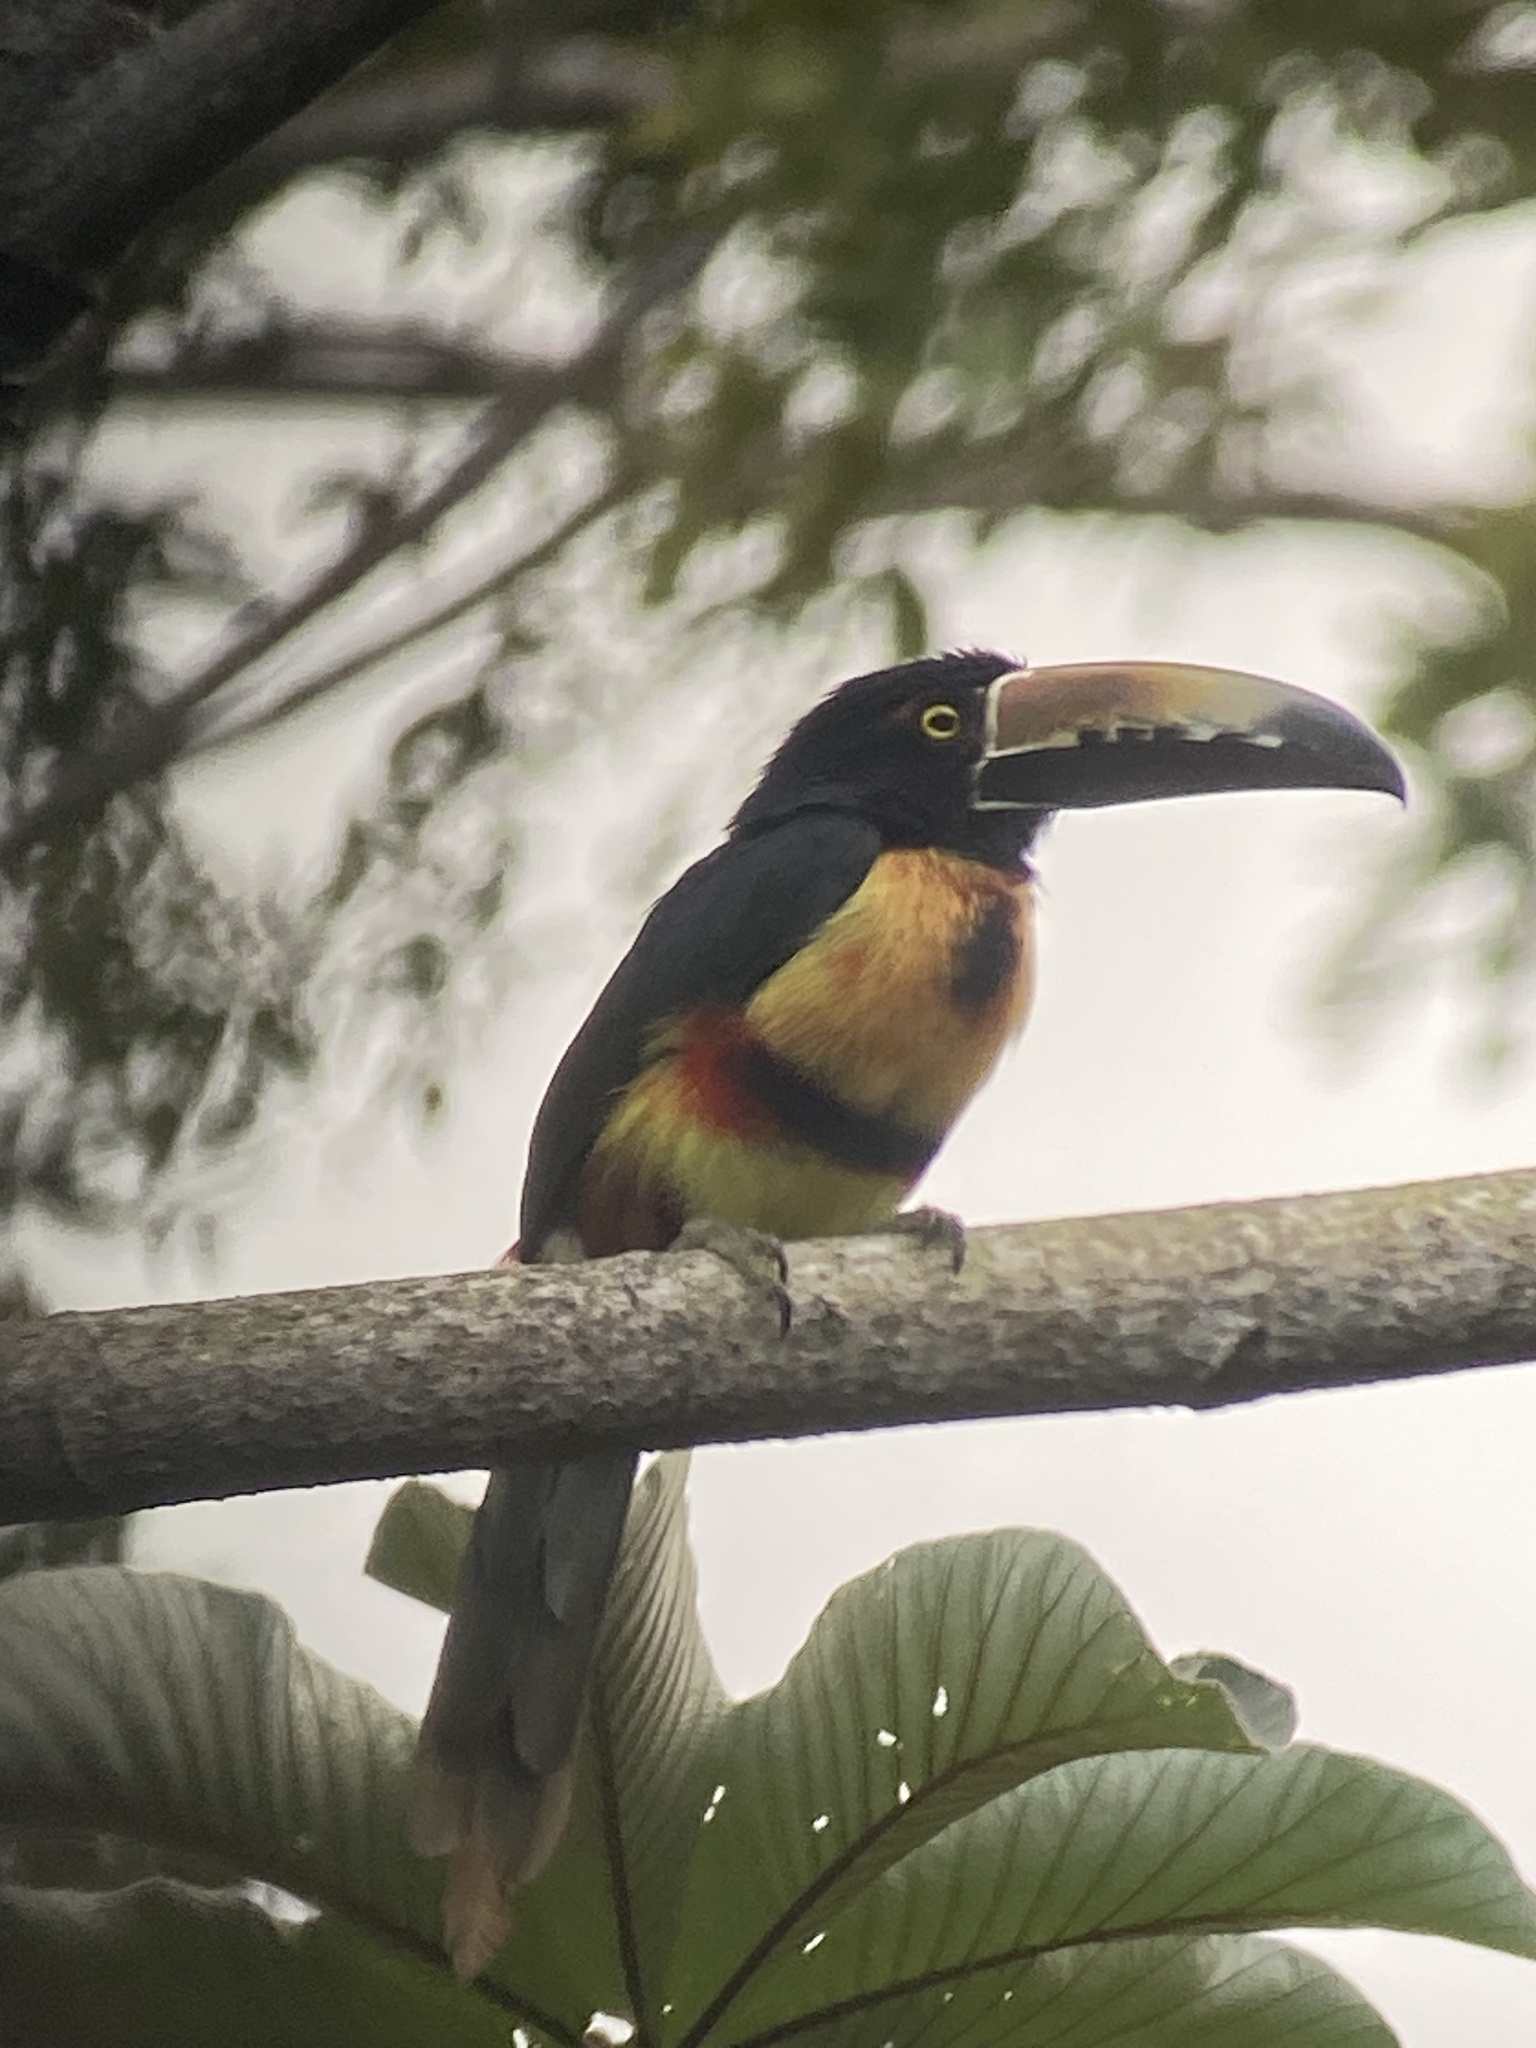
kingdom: Animalia
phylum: Chordata
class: Aves
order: Piciformes
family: Ramphastidae
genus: Pteroglossus
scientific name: Pteroglossus torquatus
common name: Collared aracari
